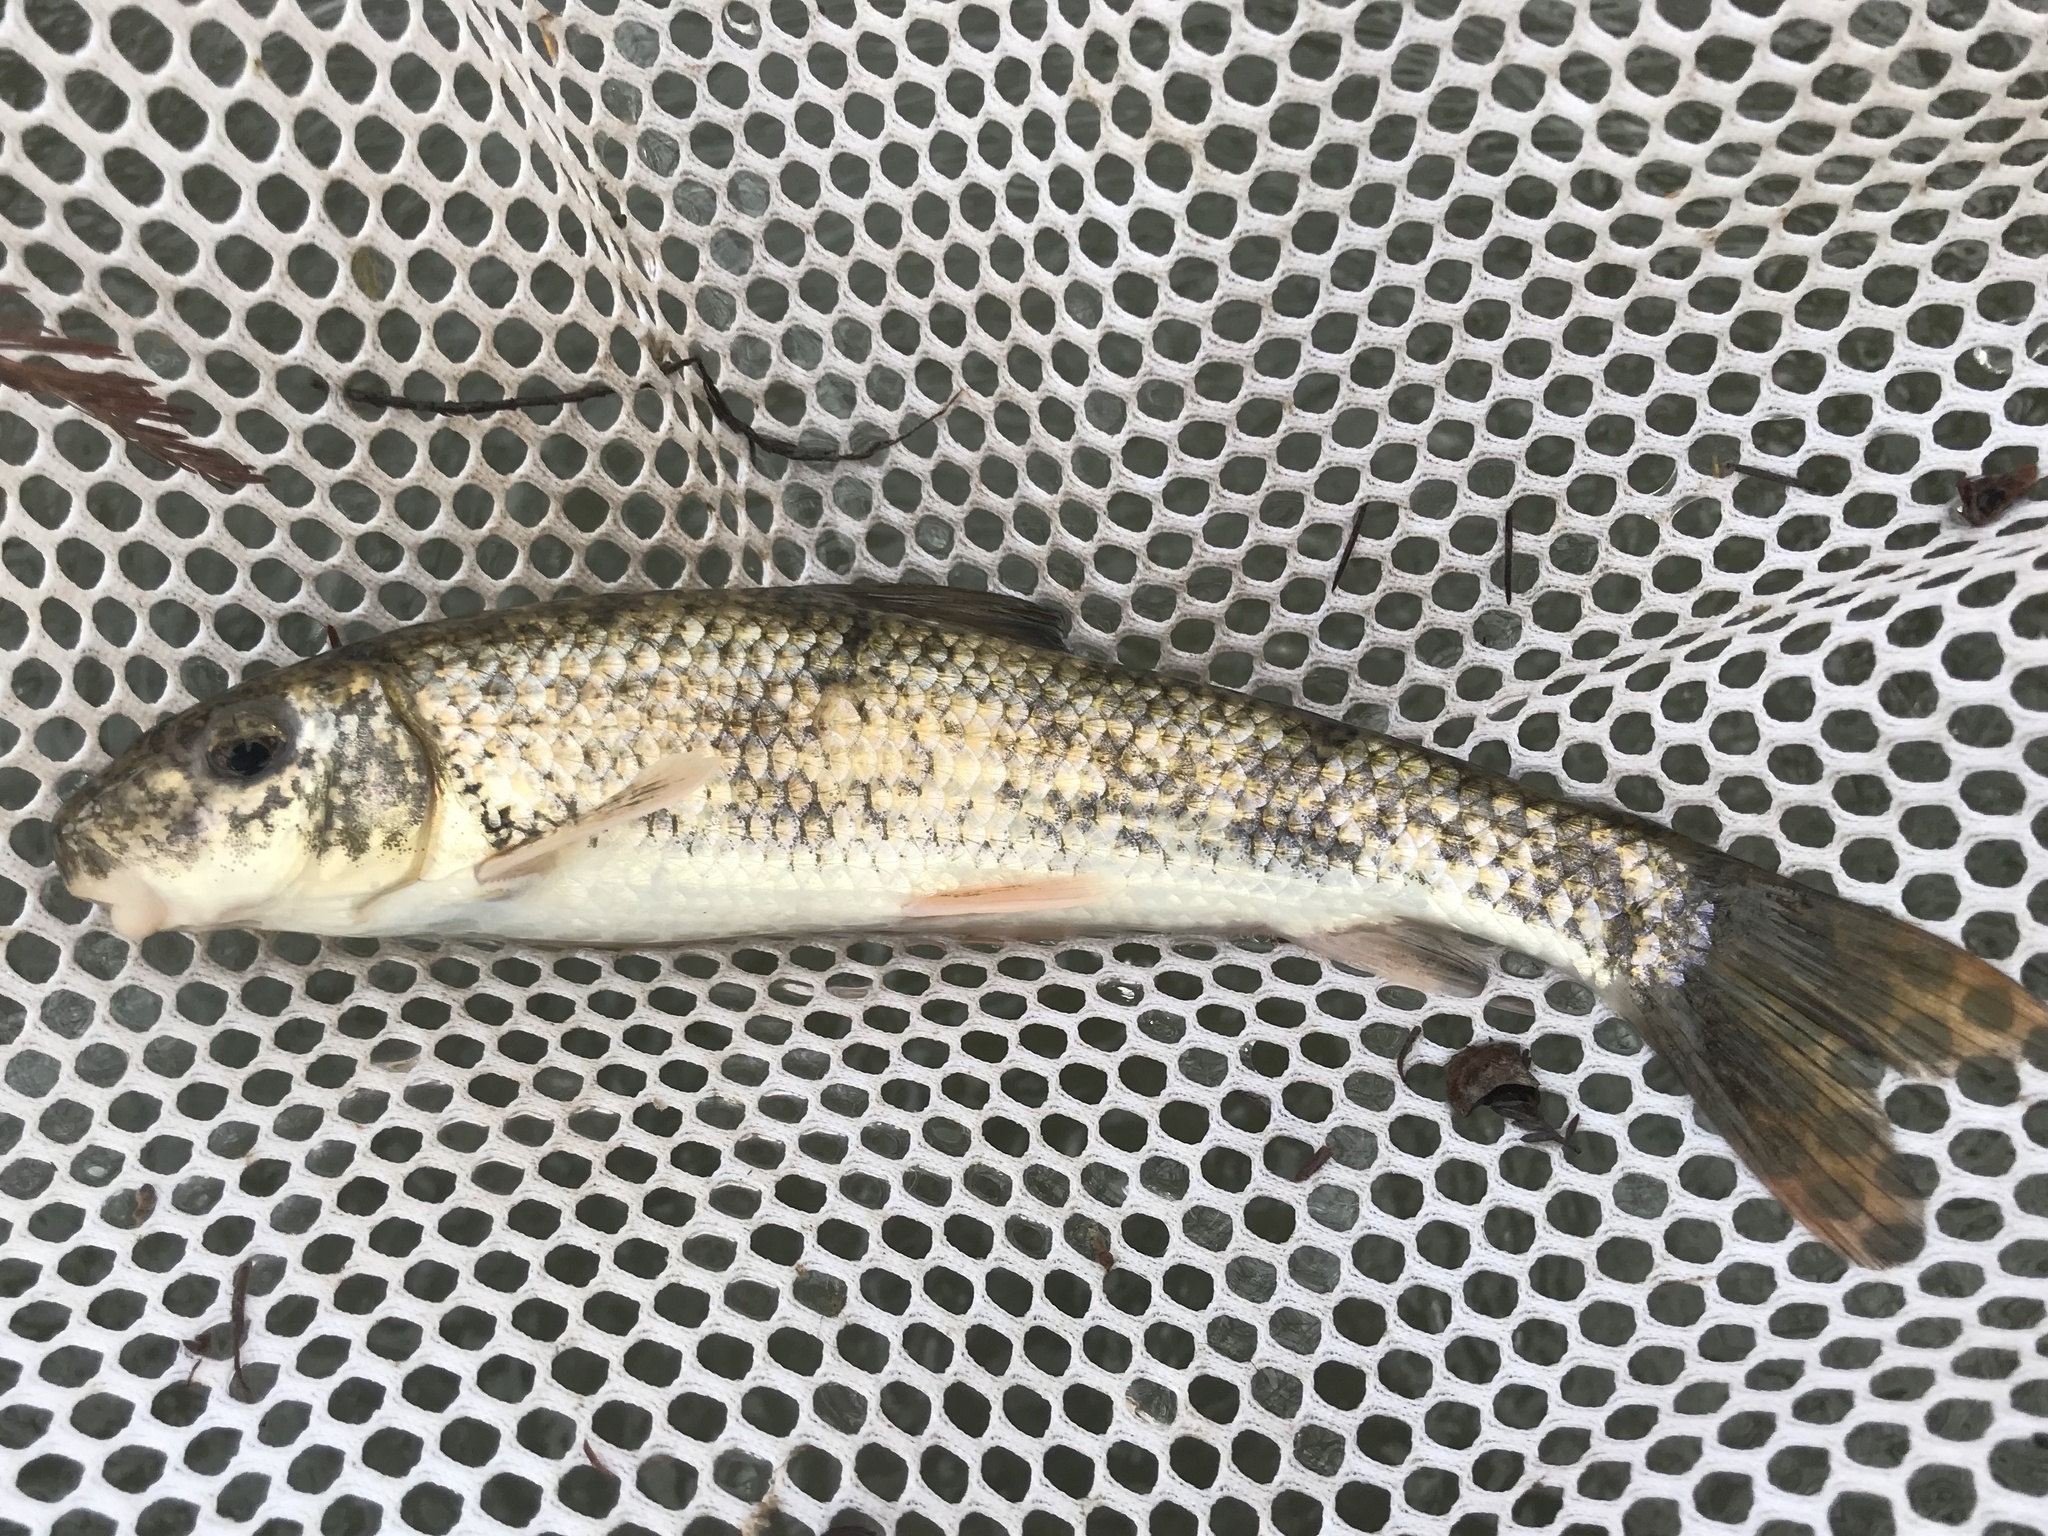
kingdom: Animalia
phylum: Chordata
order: Cypriniformes
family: Catostomidae
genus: Moxostoma
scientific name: Moxostoma congestum
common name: Gray redhorse
